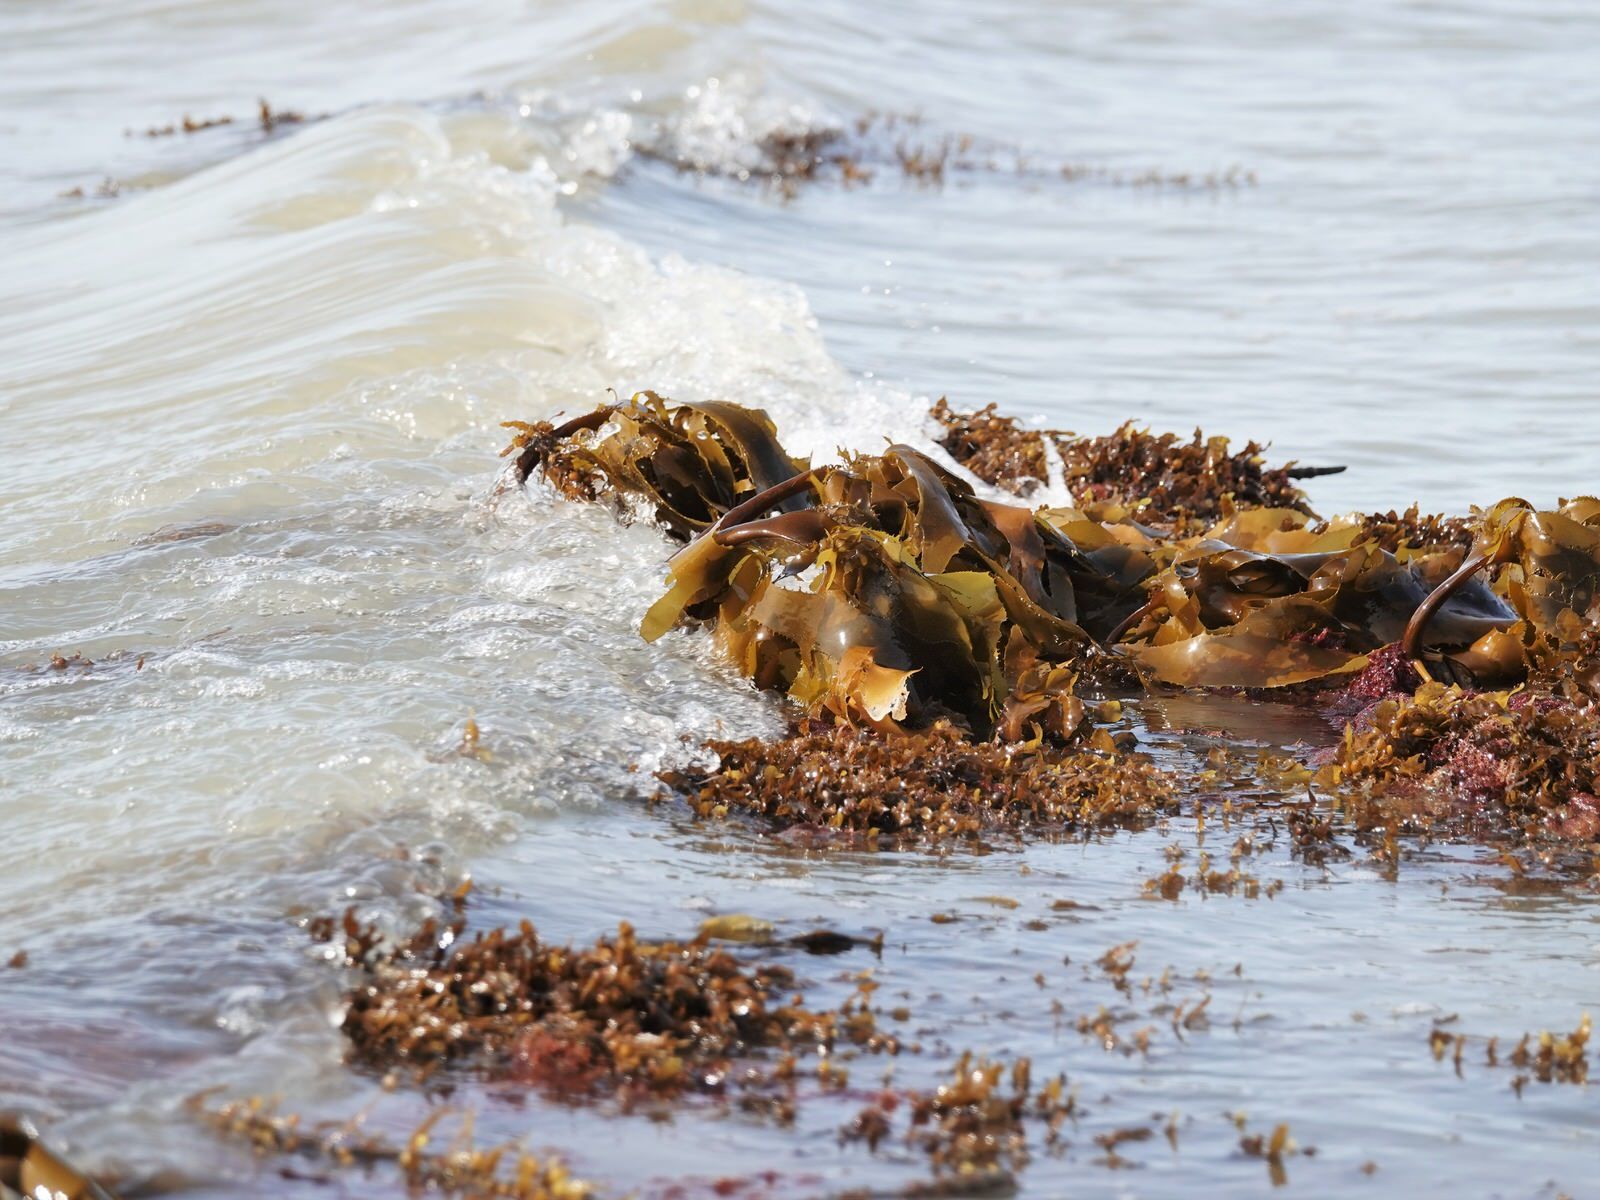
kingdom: Chromista
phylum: Ochrophyta
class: Phaeophyceae
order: Laminariales
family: Lessoniaceae
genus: Ecklonia
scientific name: Ecklonia radiata
